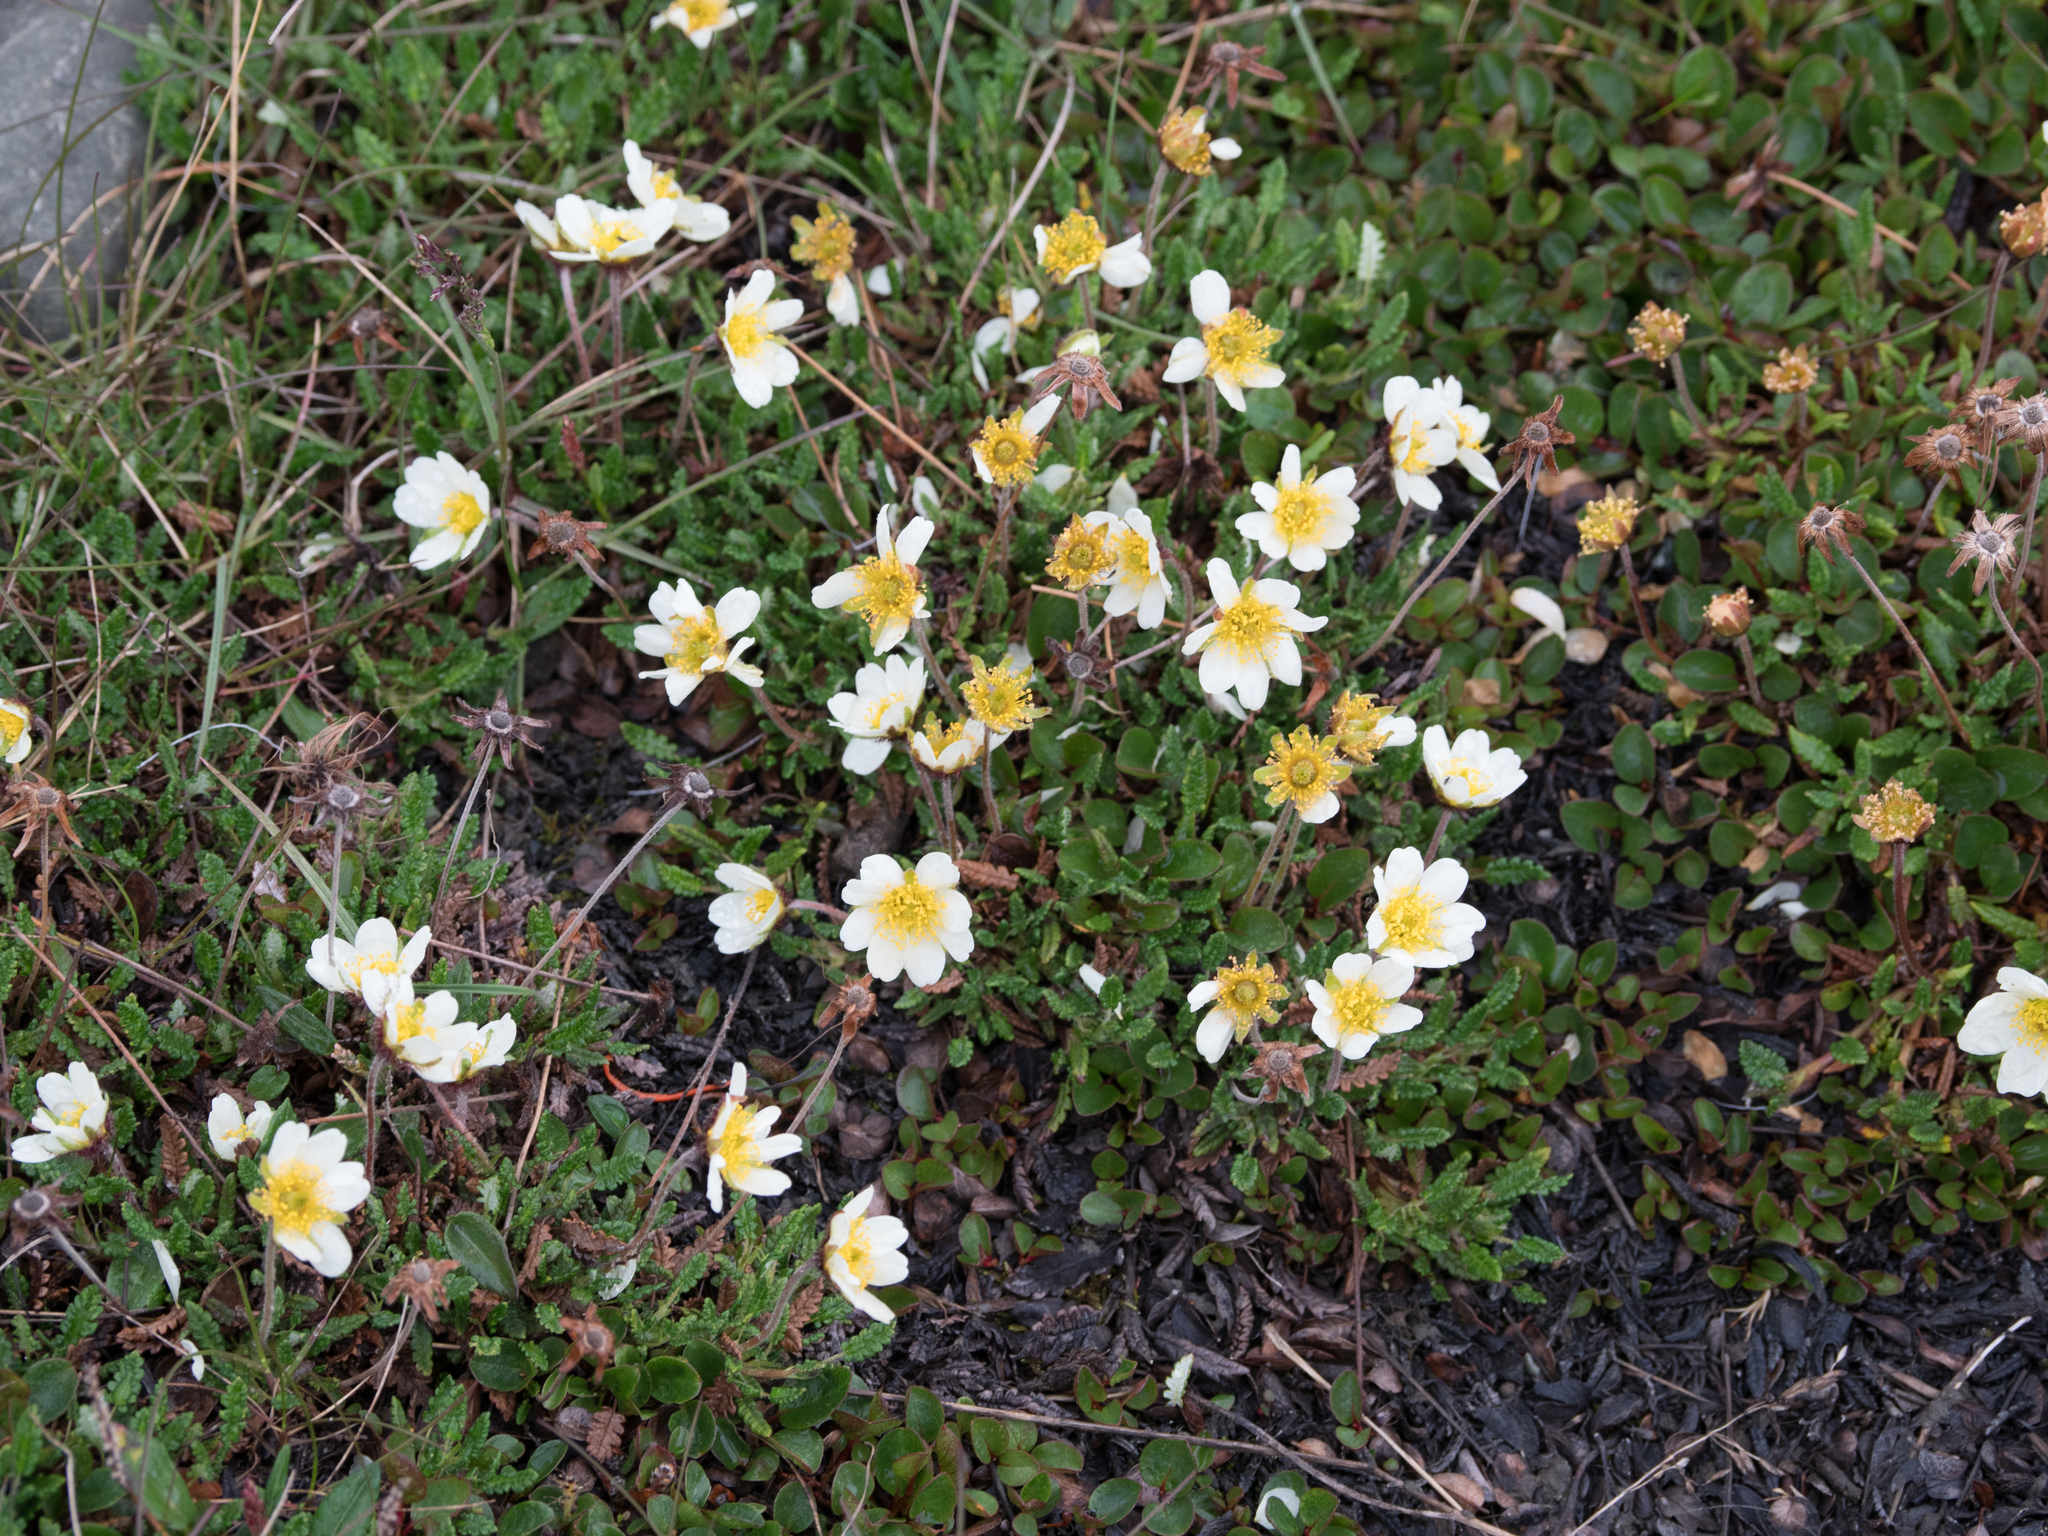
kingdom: Plantae
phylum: Tracheophyta
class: Magnoliopsida
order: Rosales
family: Rosaceae
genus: Dryas
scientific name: Dryas octopetala
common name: Eight-petal mountain-avens
